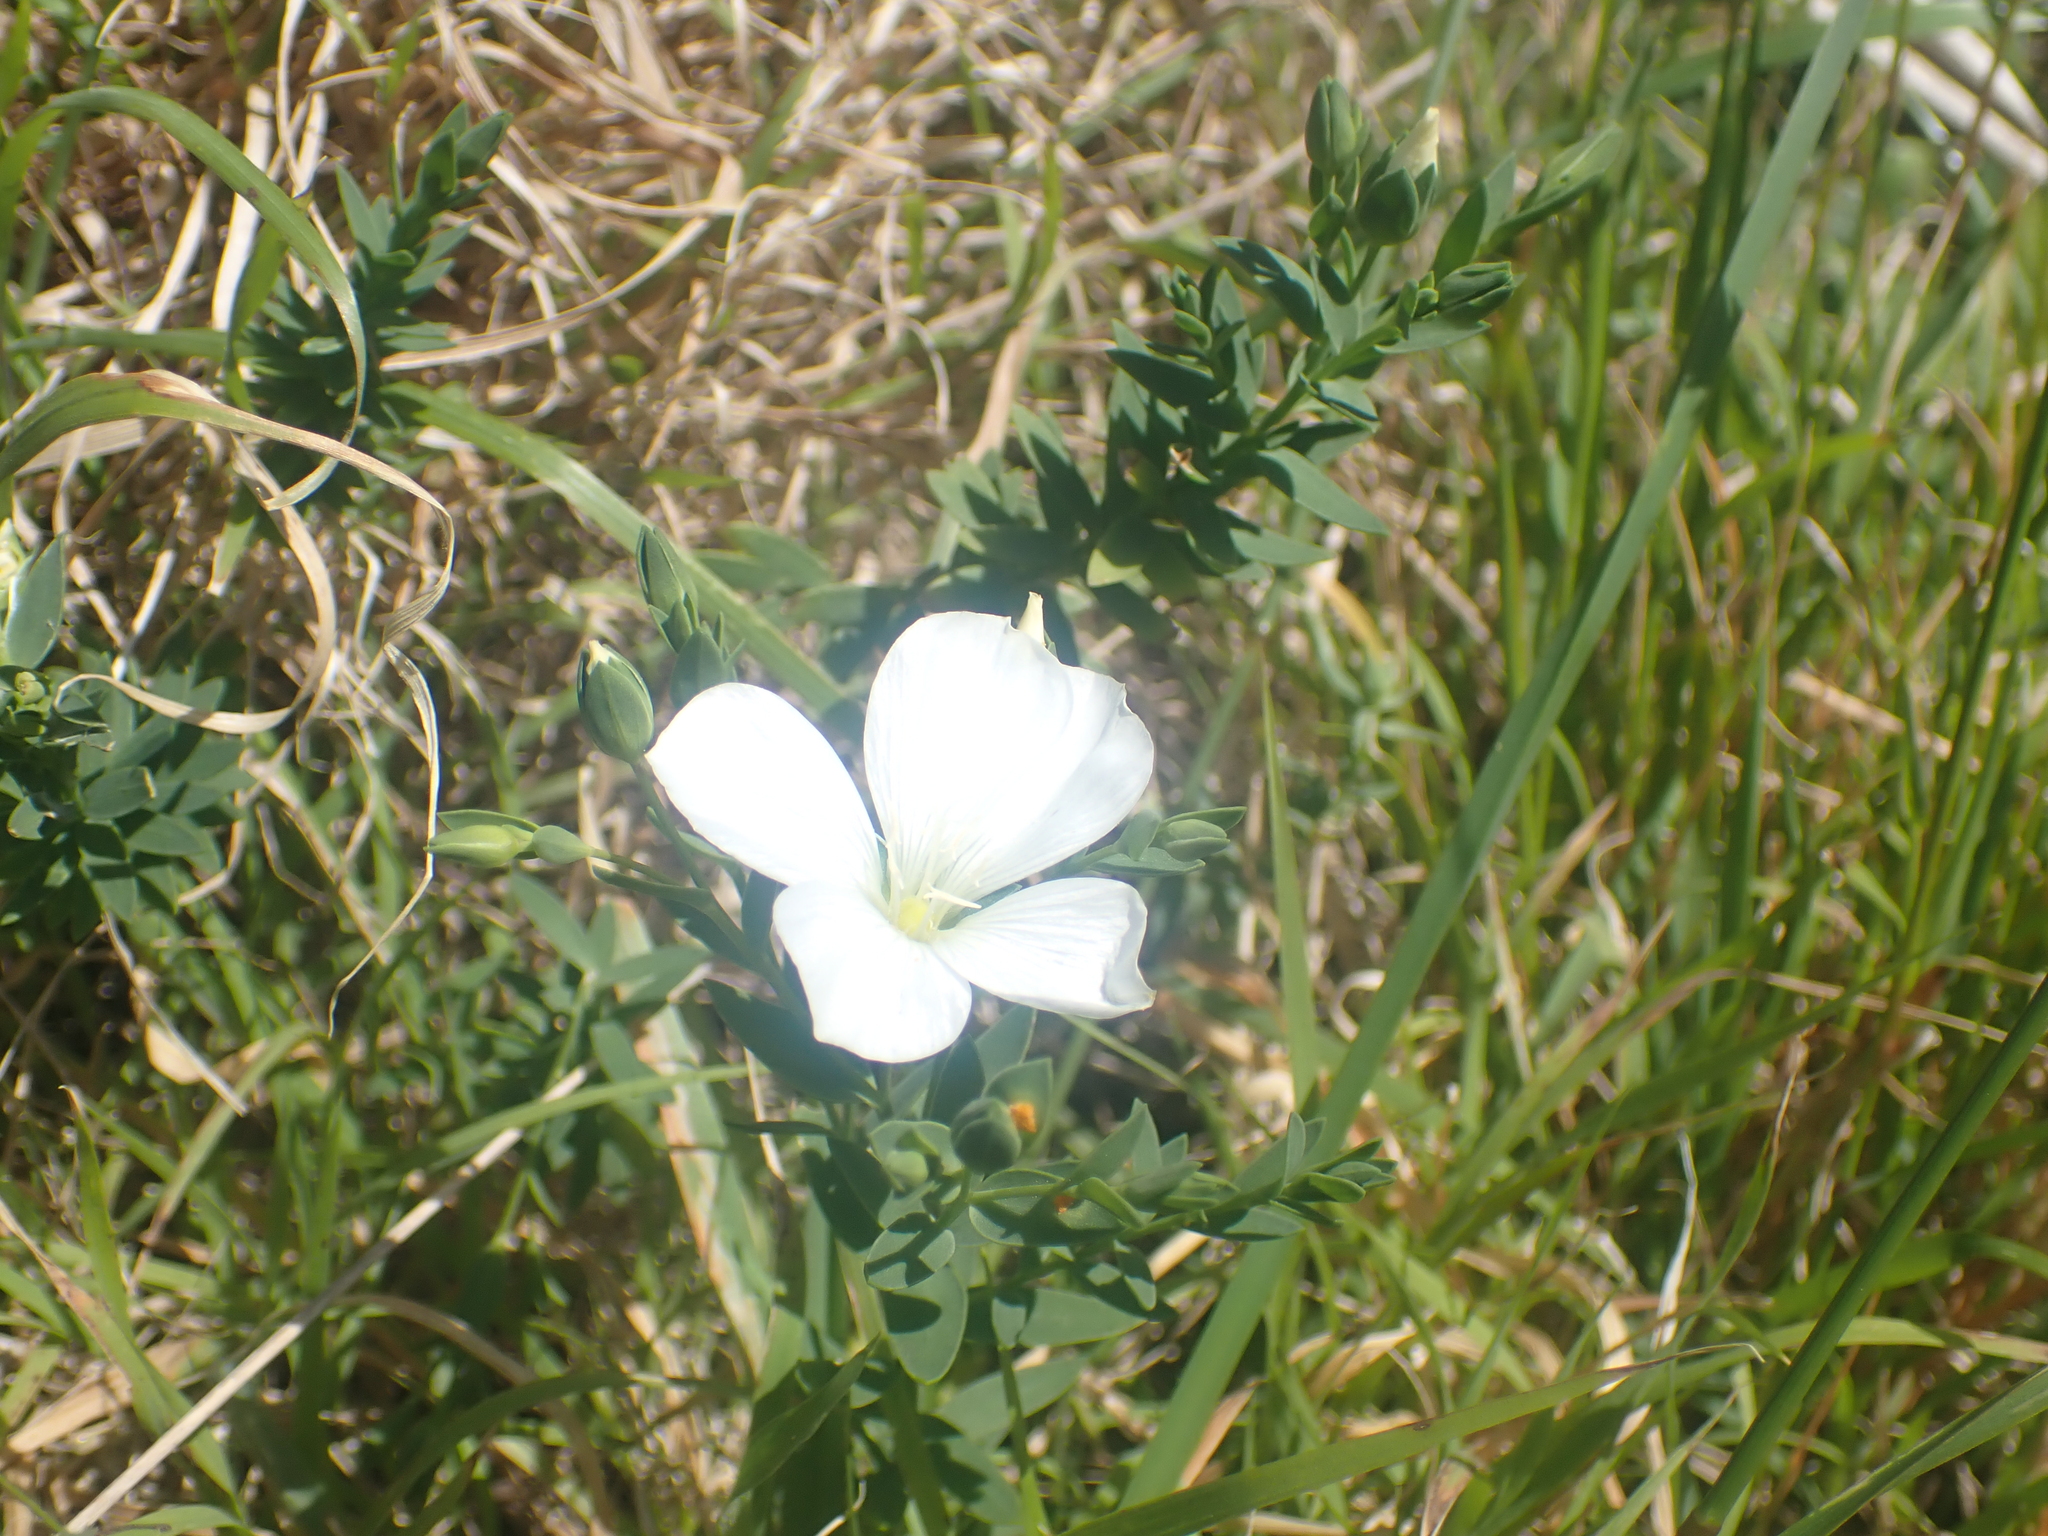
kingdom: Plantae
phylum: Tracheophyta
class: Magnoliopsida
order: Malpighiales
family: Linaceae
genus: Linum
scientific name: Linum monogynum
